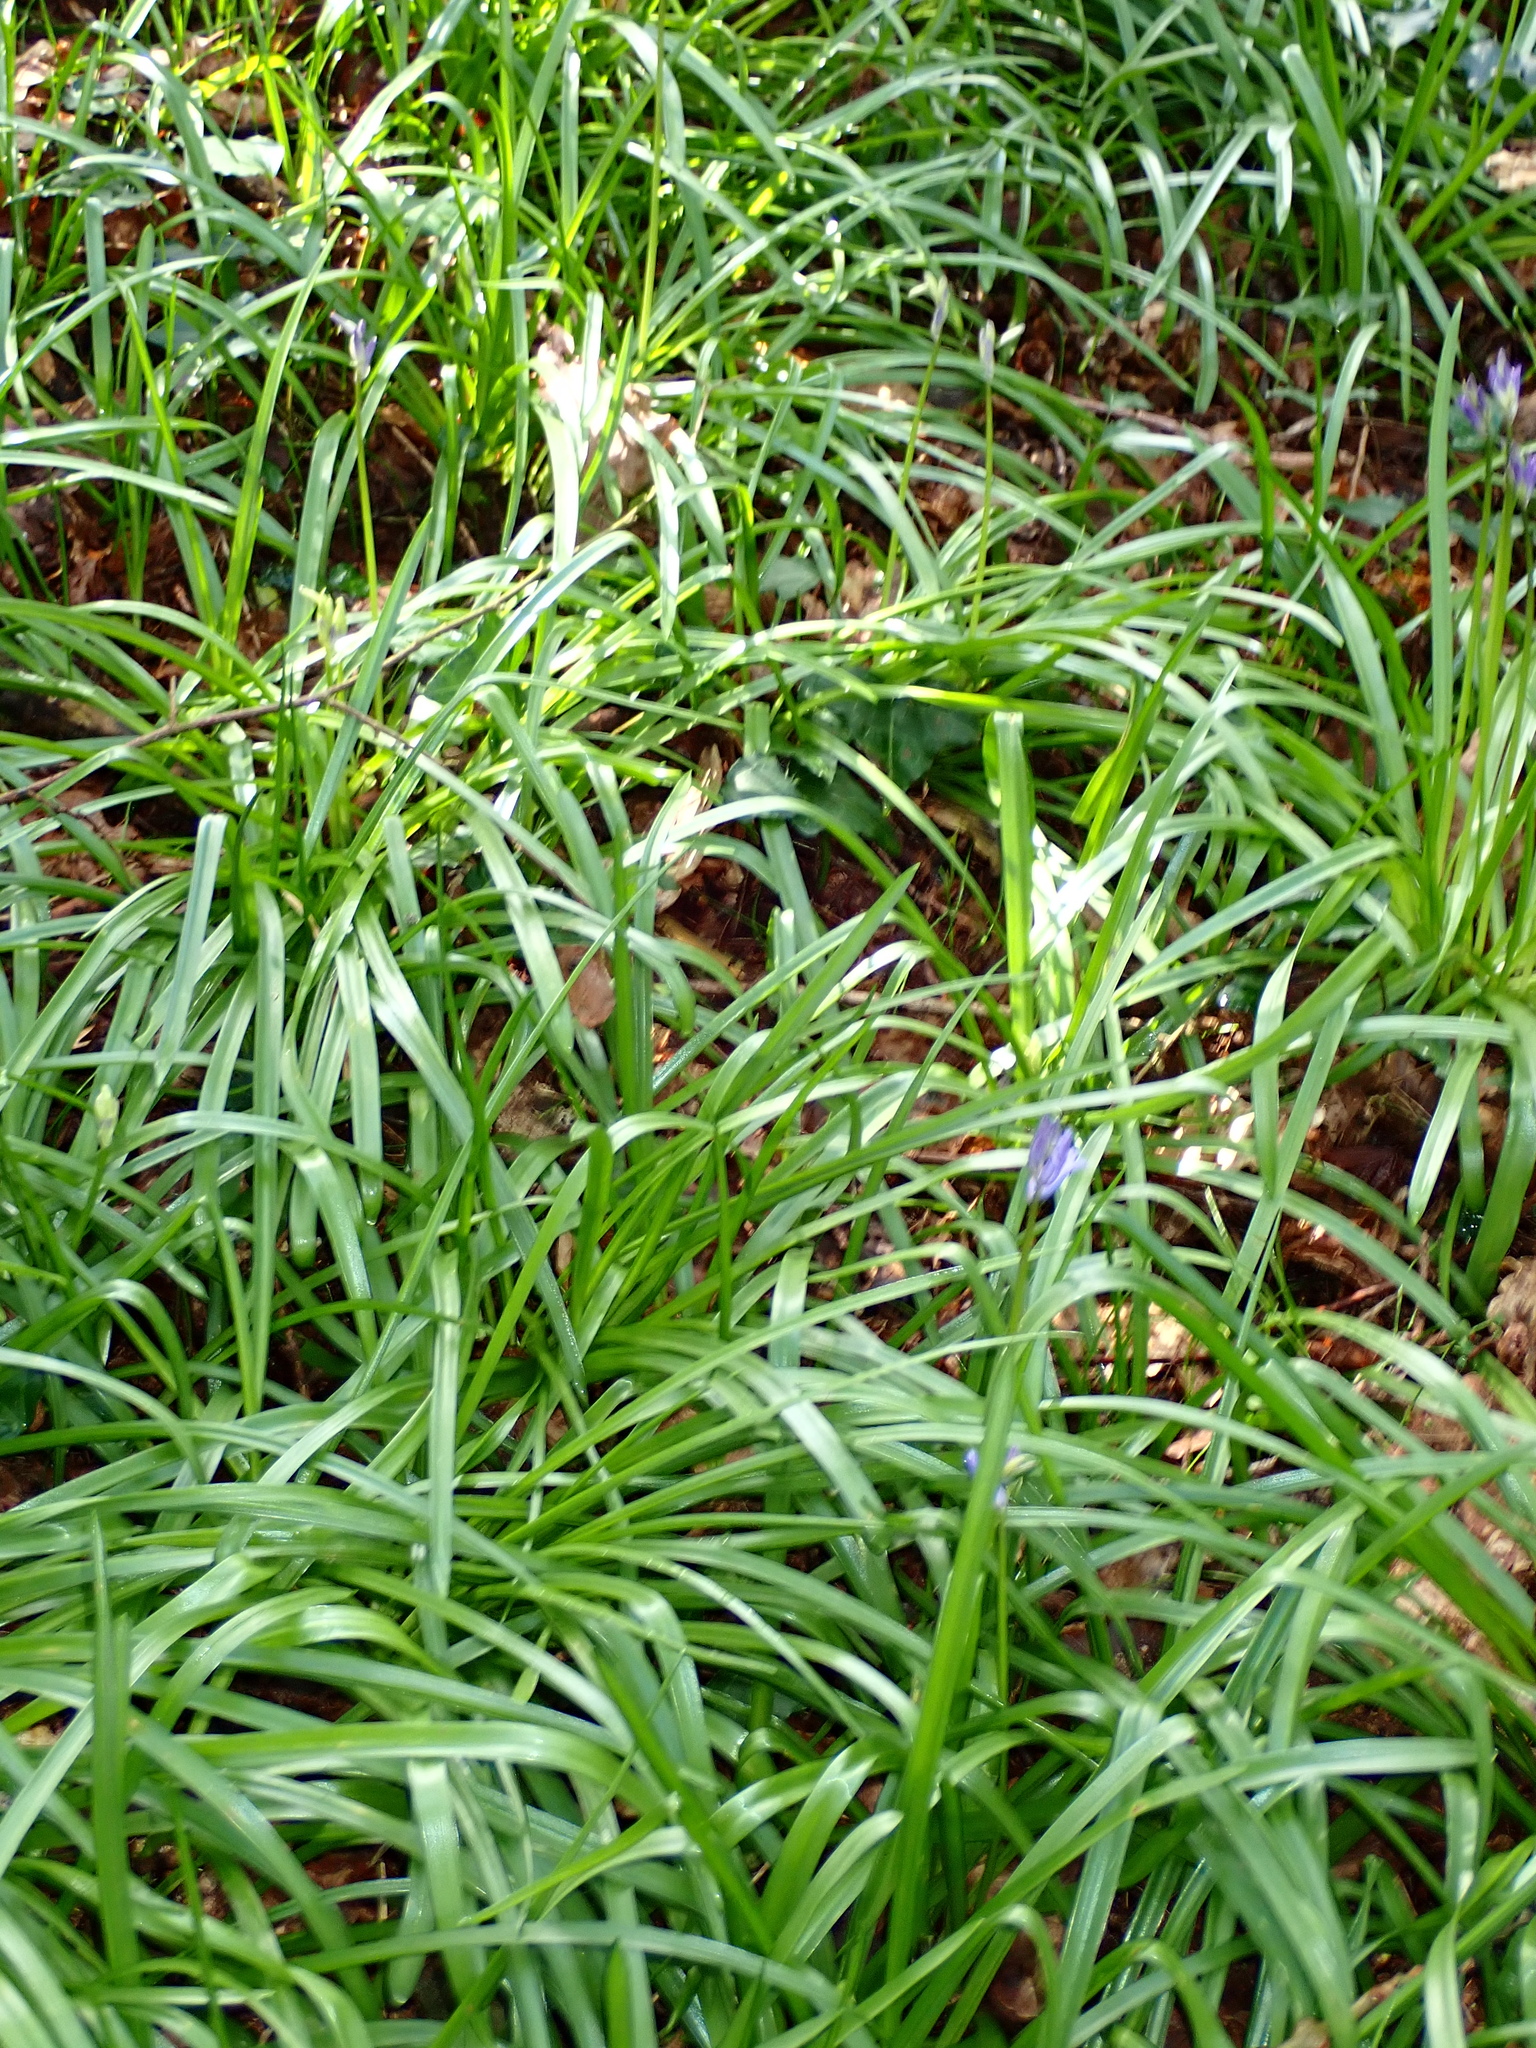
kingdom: Plantae
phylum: Tracheophyta
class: Liliopsida
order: Asparagales
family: Asparagaceae
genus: Hyacinthoides
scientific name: Hyacinthoides non-scripta
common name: Bluebell
